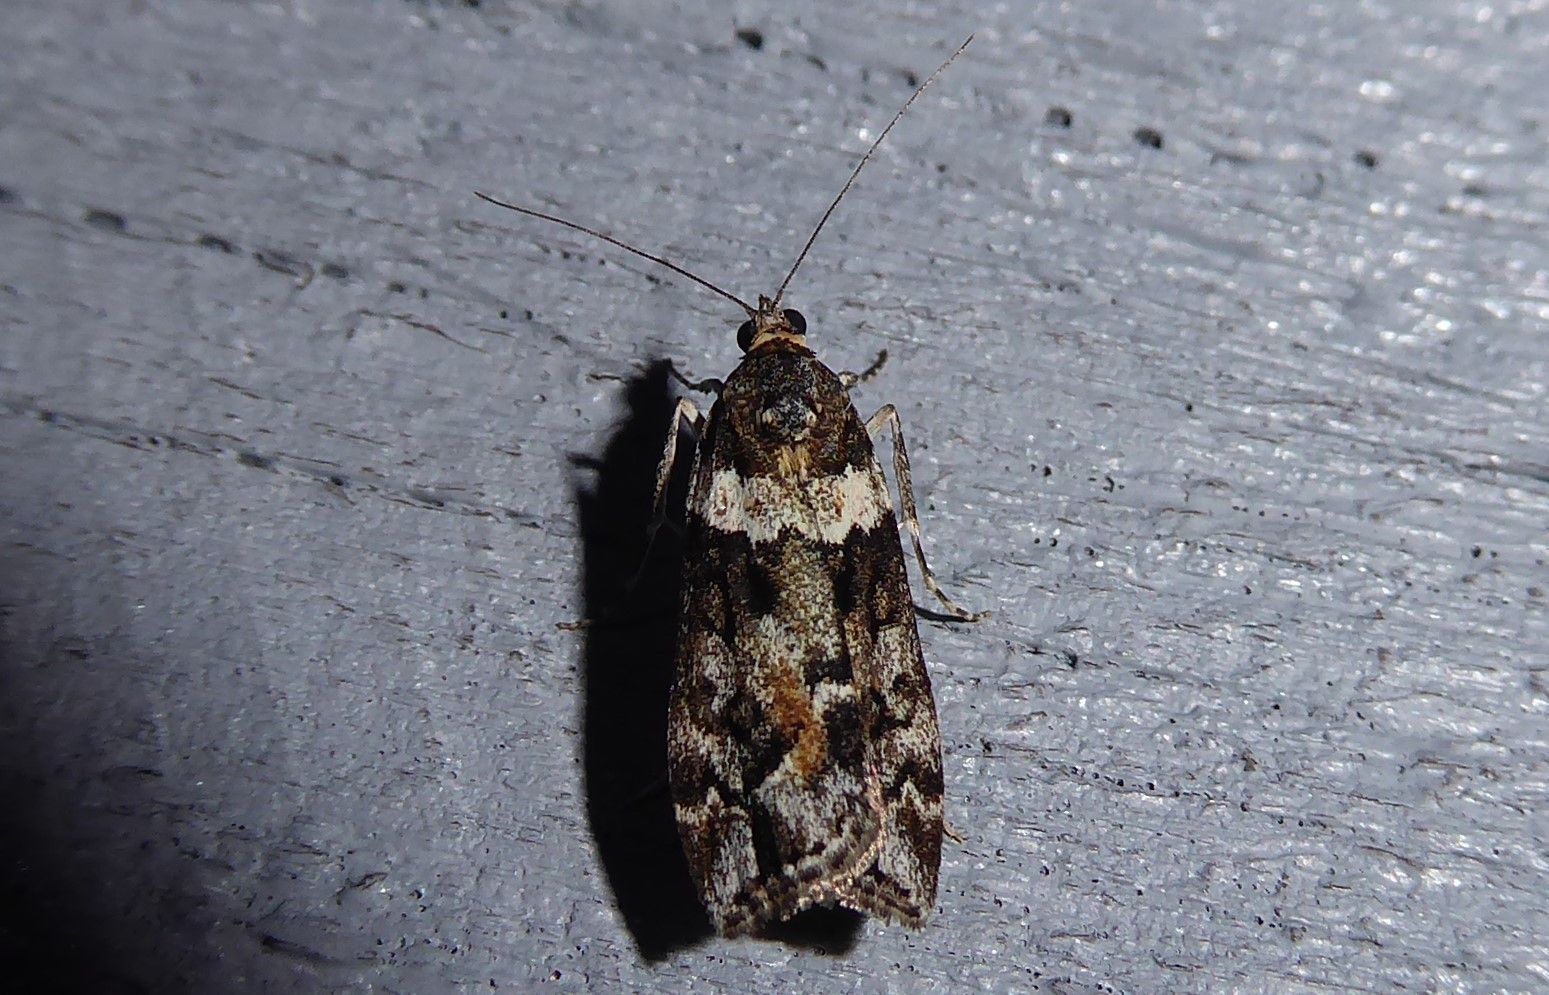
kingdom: Animalia
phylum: Arthropoda
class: Insecta
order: Lepidoptera
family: Crambidae
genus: Eudonia
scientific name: Eudonia submarginalis
